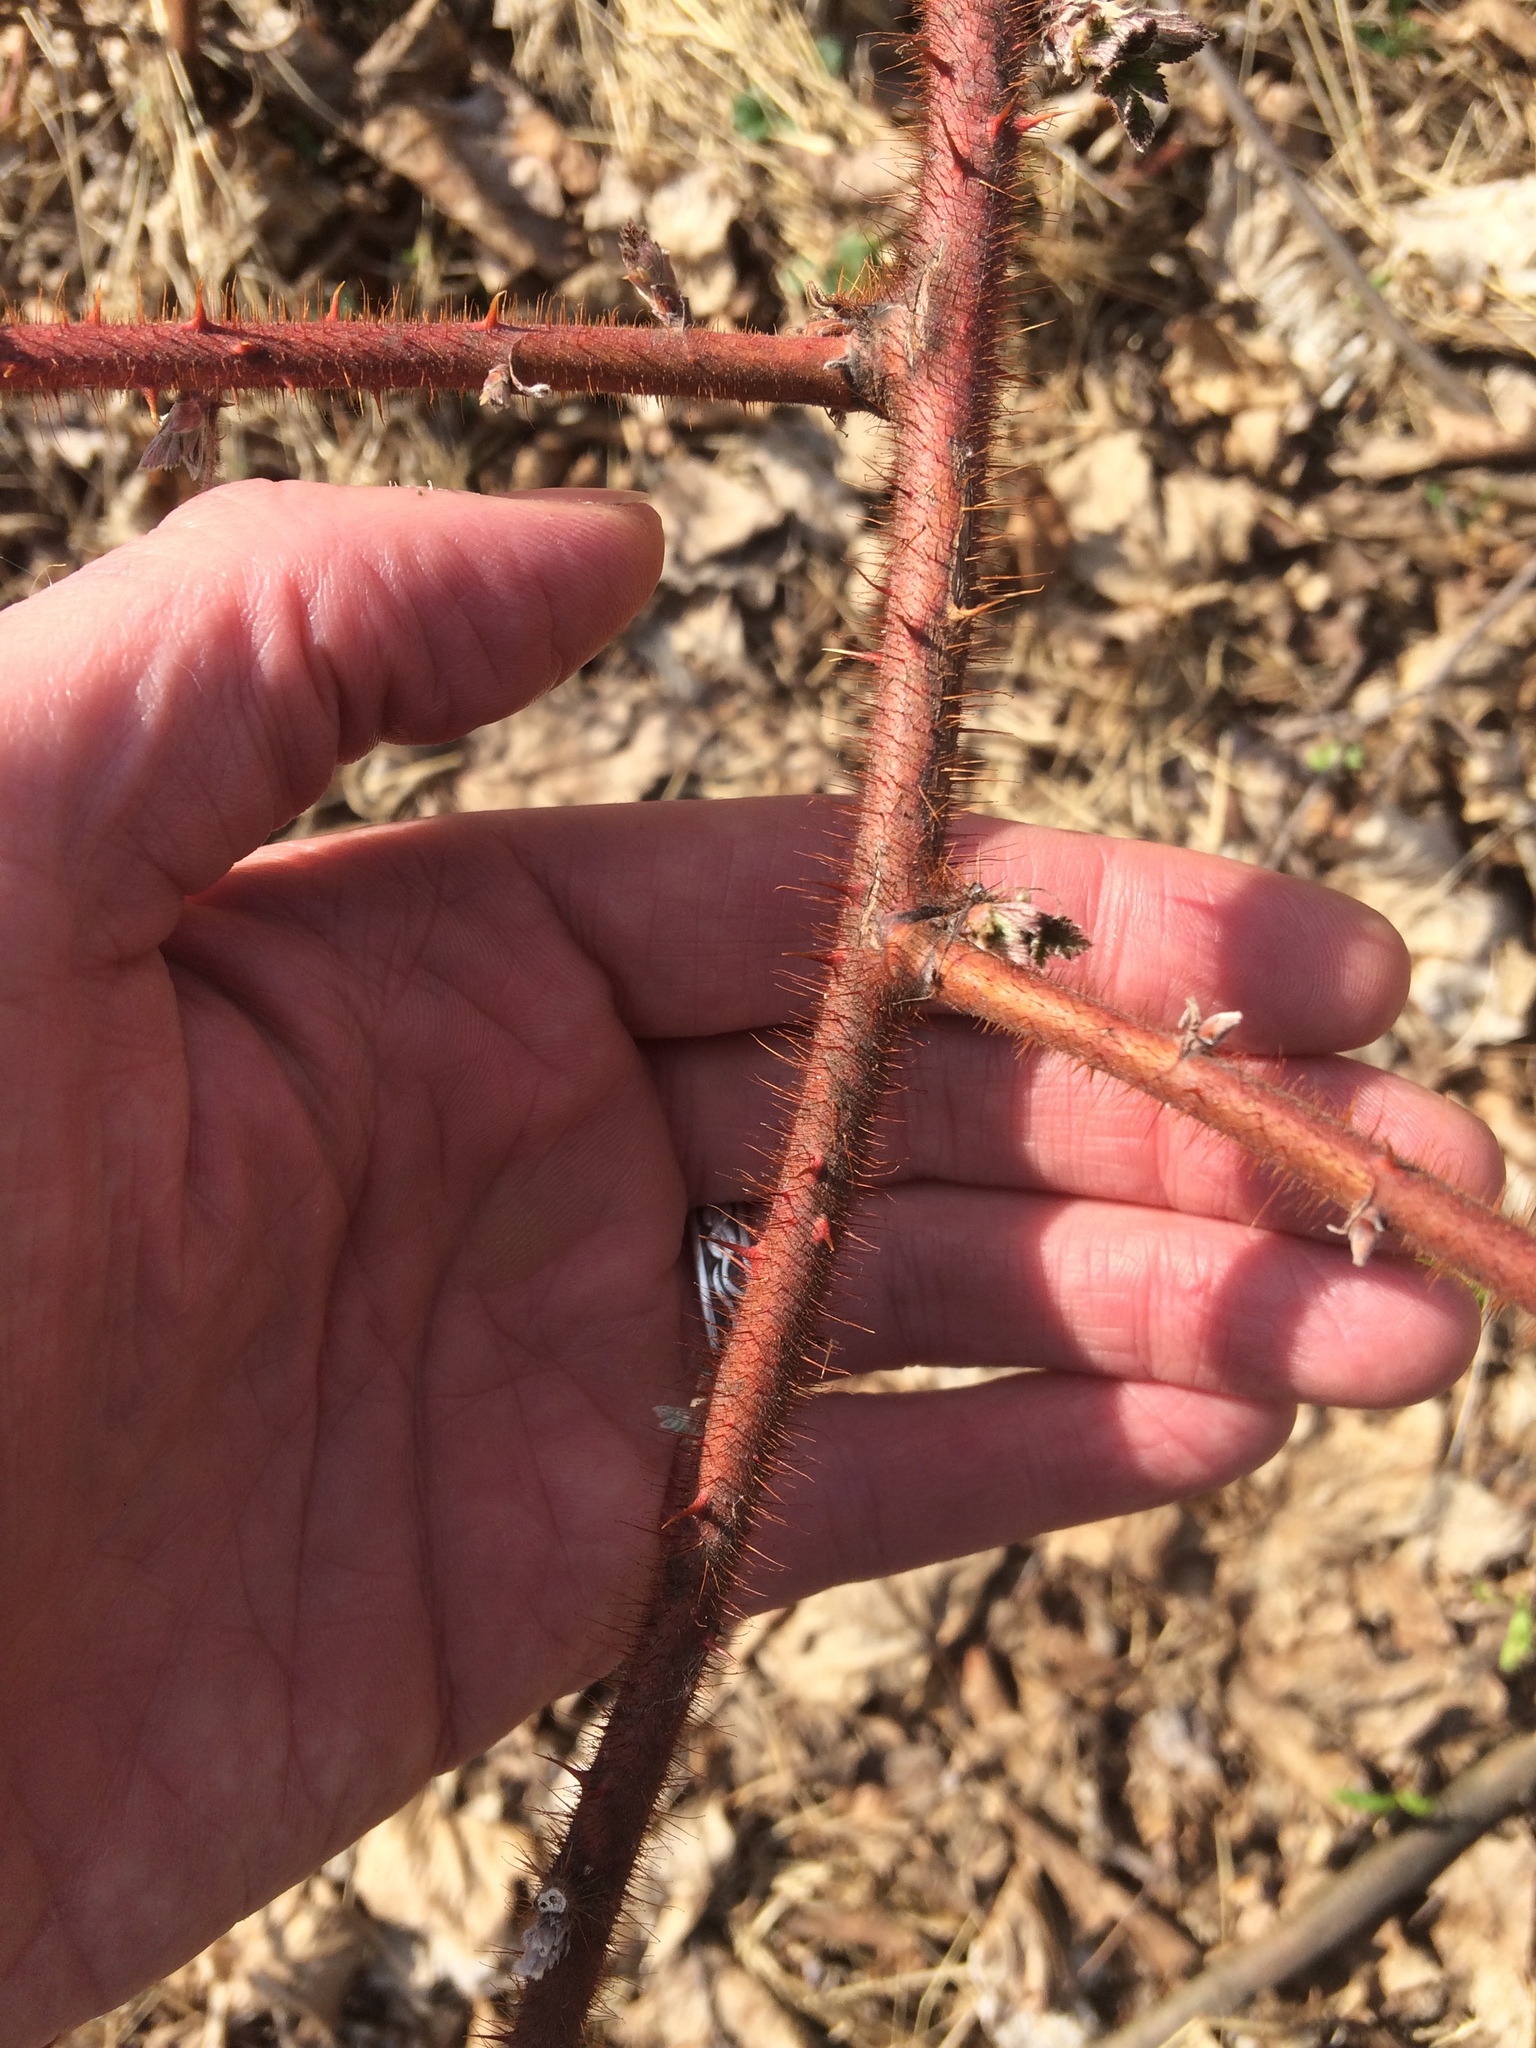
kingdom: Plantae
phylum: Tracheophyta
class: Magnoliopsida
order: Rosales
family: Rosaceae
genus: Rubus
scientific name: Rubus phoenicolasius
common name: Japanese wineberry
